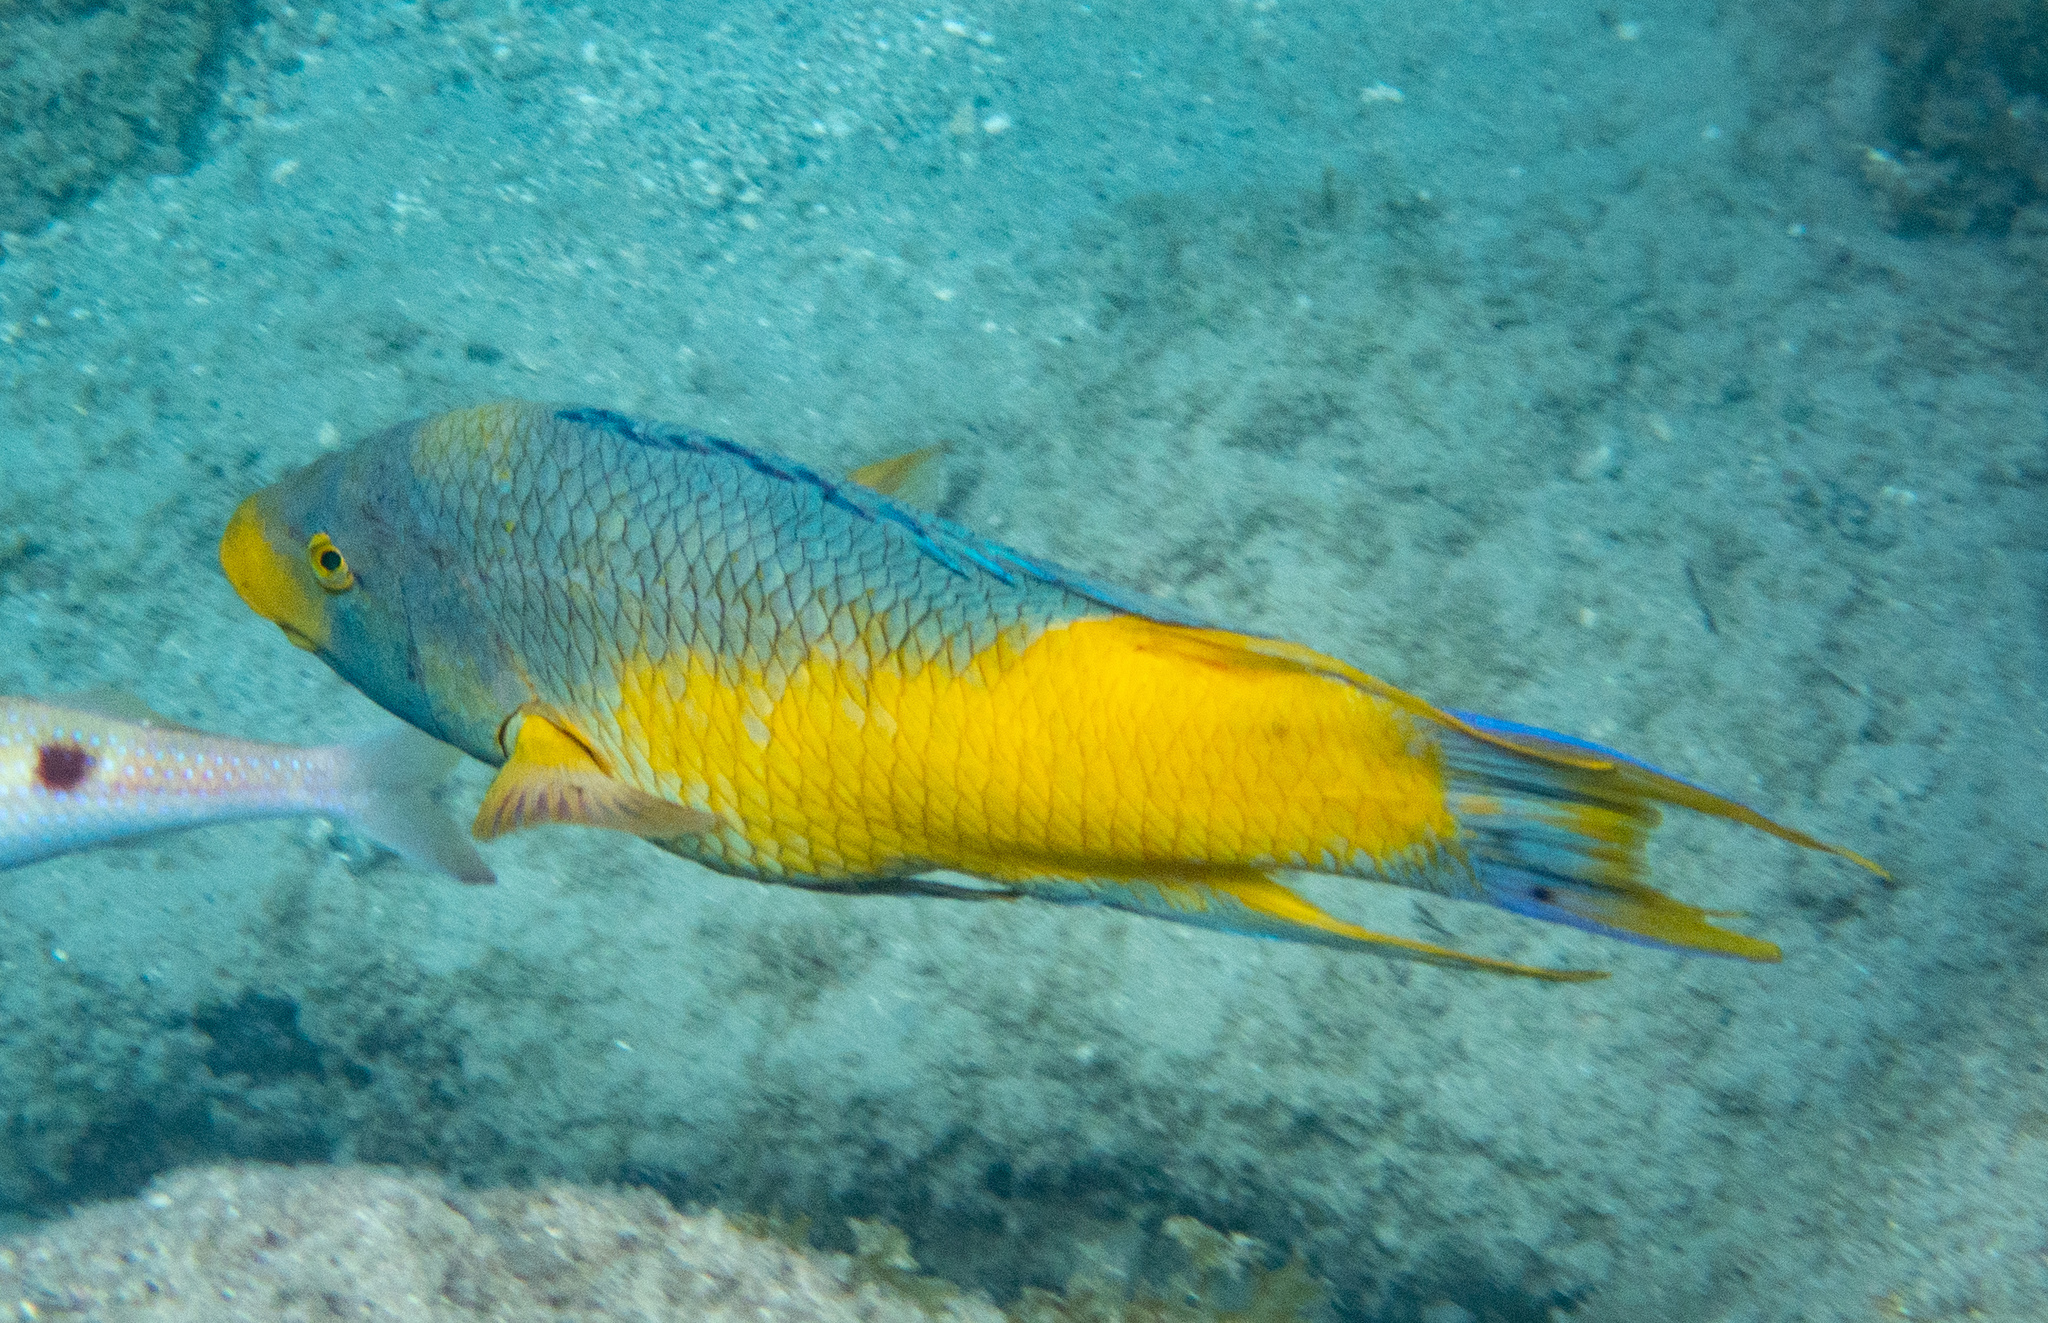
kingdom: Animalia
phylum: Chordata
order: Perciformes
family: Labridae
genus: Bodianus
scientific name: Bodianus rufus
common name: Spanish hogfish
